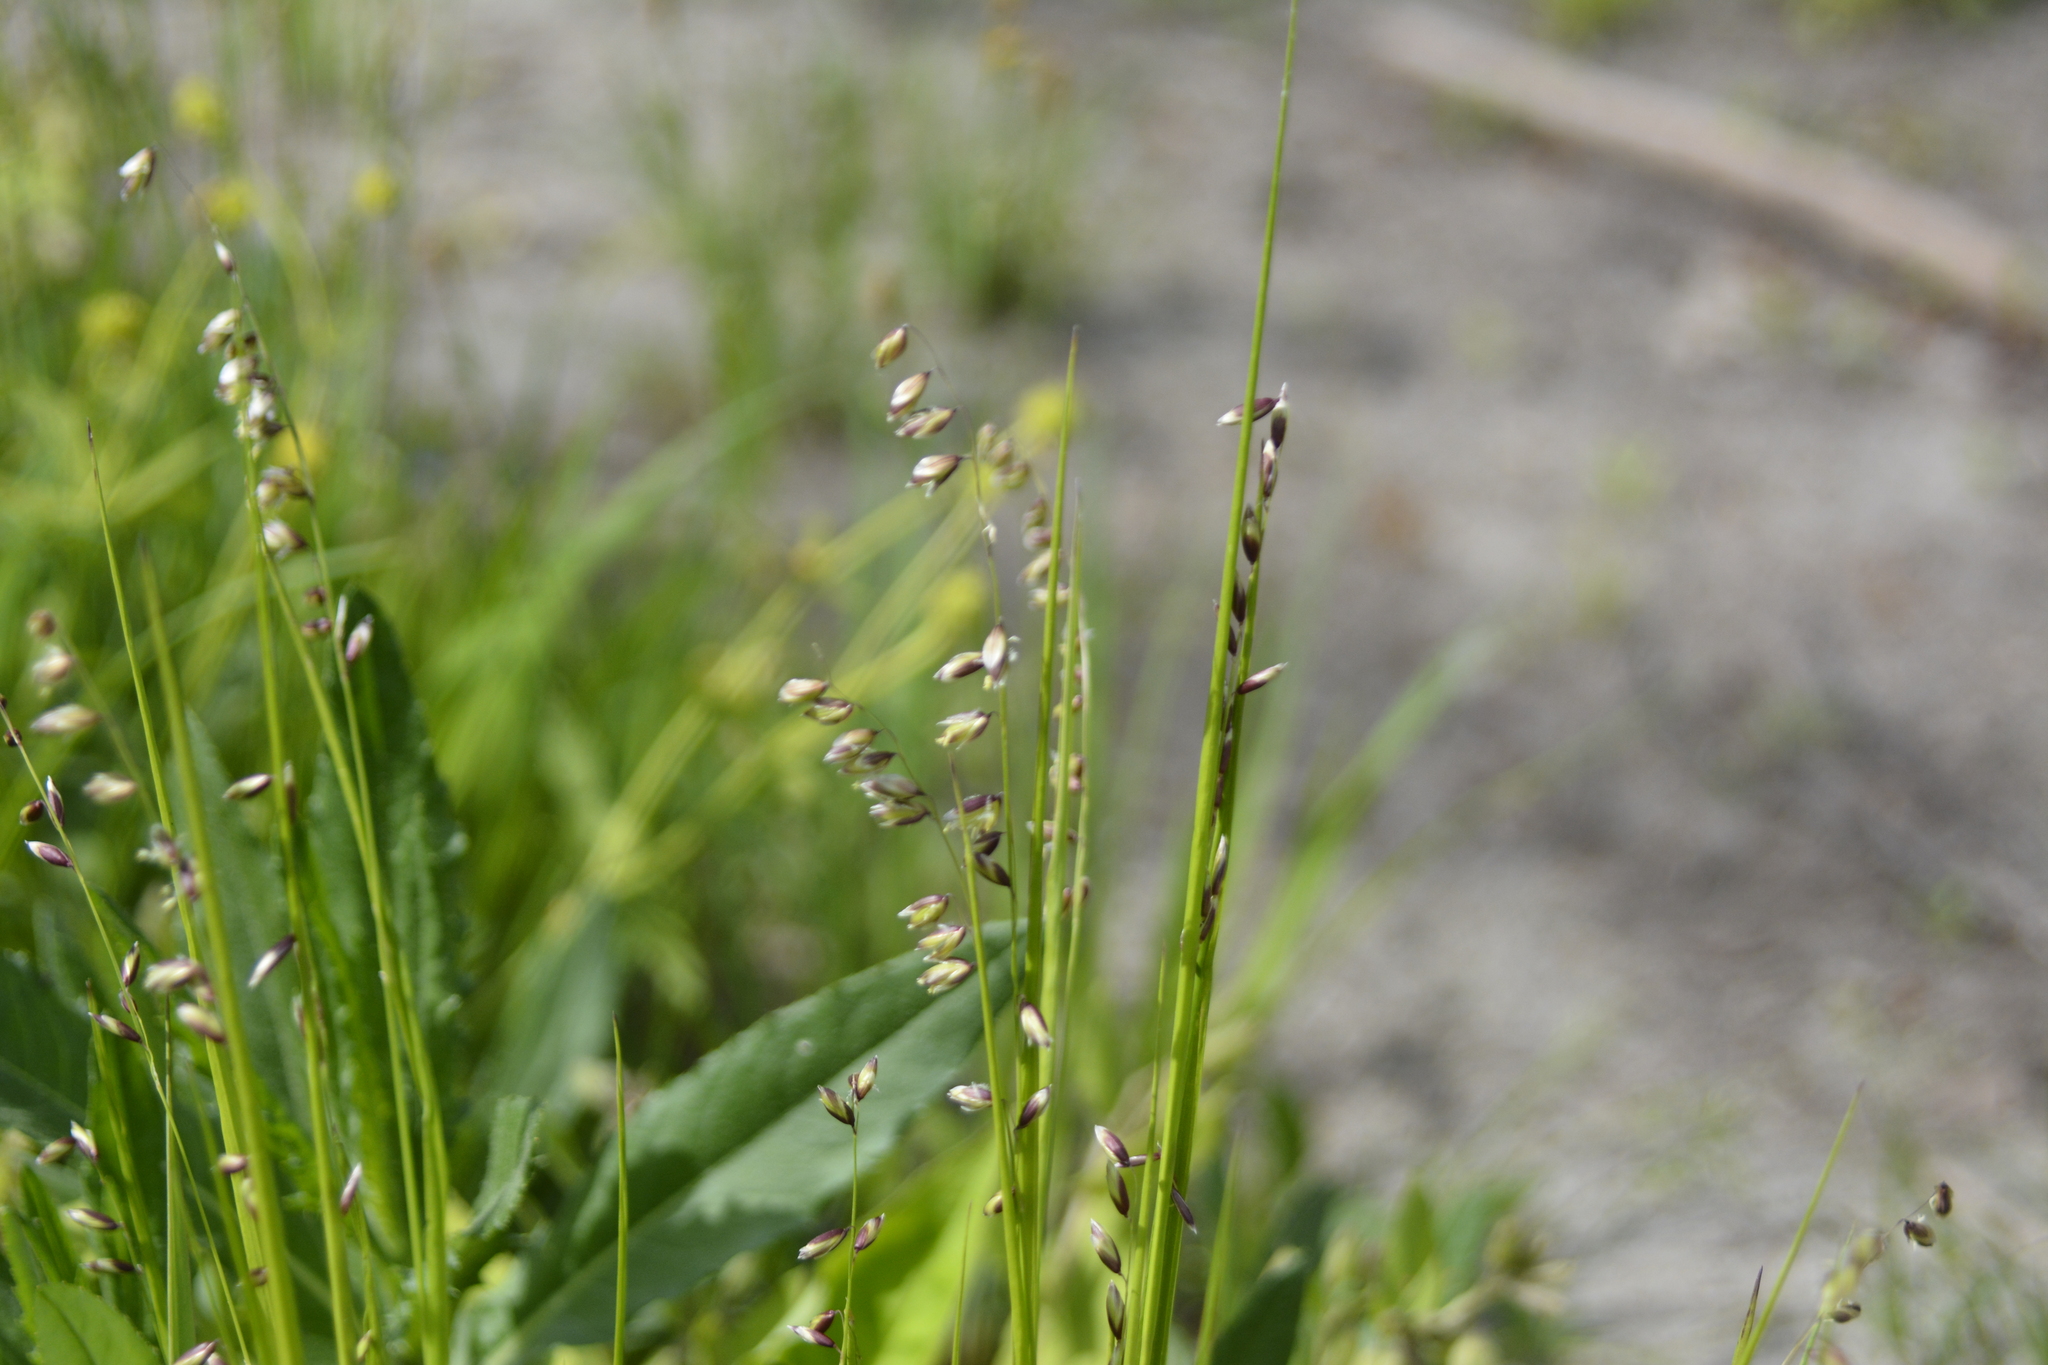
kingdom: Plantae
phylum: Tracheophyta
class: Liliopsida
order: Poales
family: Poaceae
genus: Melica
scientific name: Melica nutans
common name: Mountain melick
